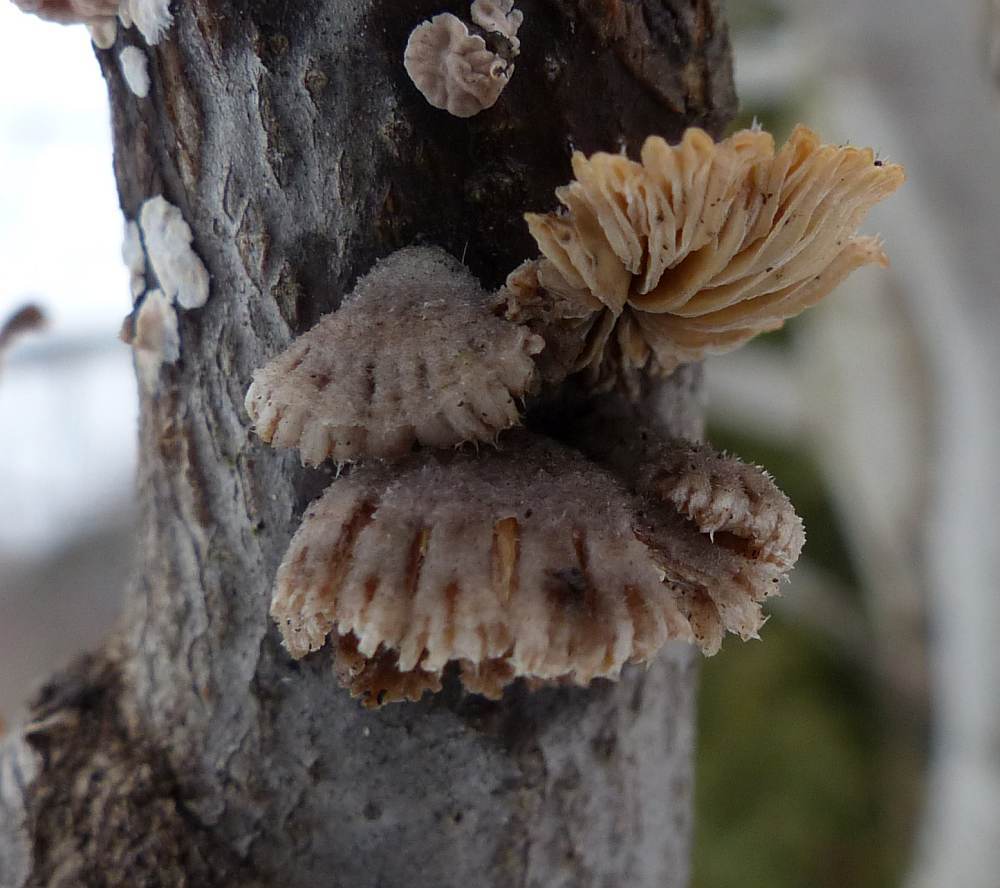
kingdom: Fungi
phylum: Basidiomycota
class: Agaricomycetes
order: Agaricales
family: Schizophyllaceae
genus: Schizophyllum
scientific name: Schizophyllum commune
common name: Common porecrust
